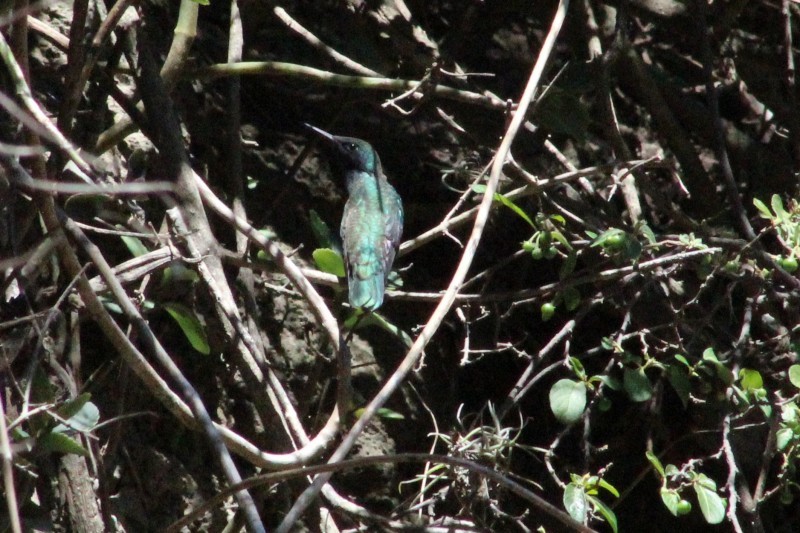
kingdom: Animalia
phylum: Chordata
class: Aves
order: Apodiformes
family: Trochilidae
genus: Colibri
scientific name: Colibri coruscans
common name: Sparkling violetear
